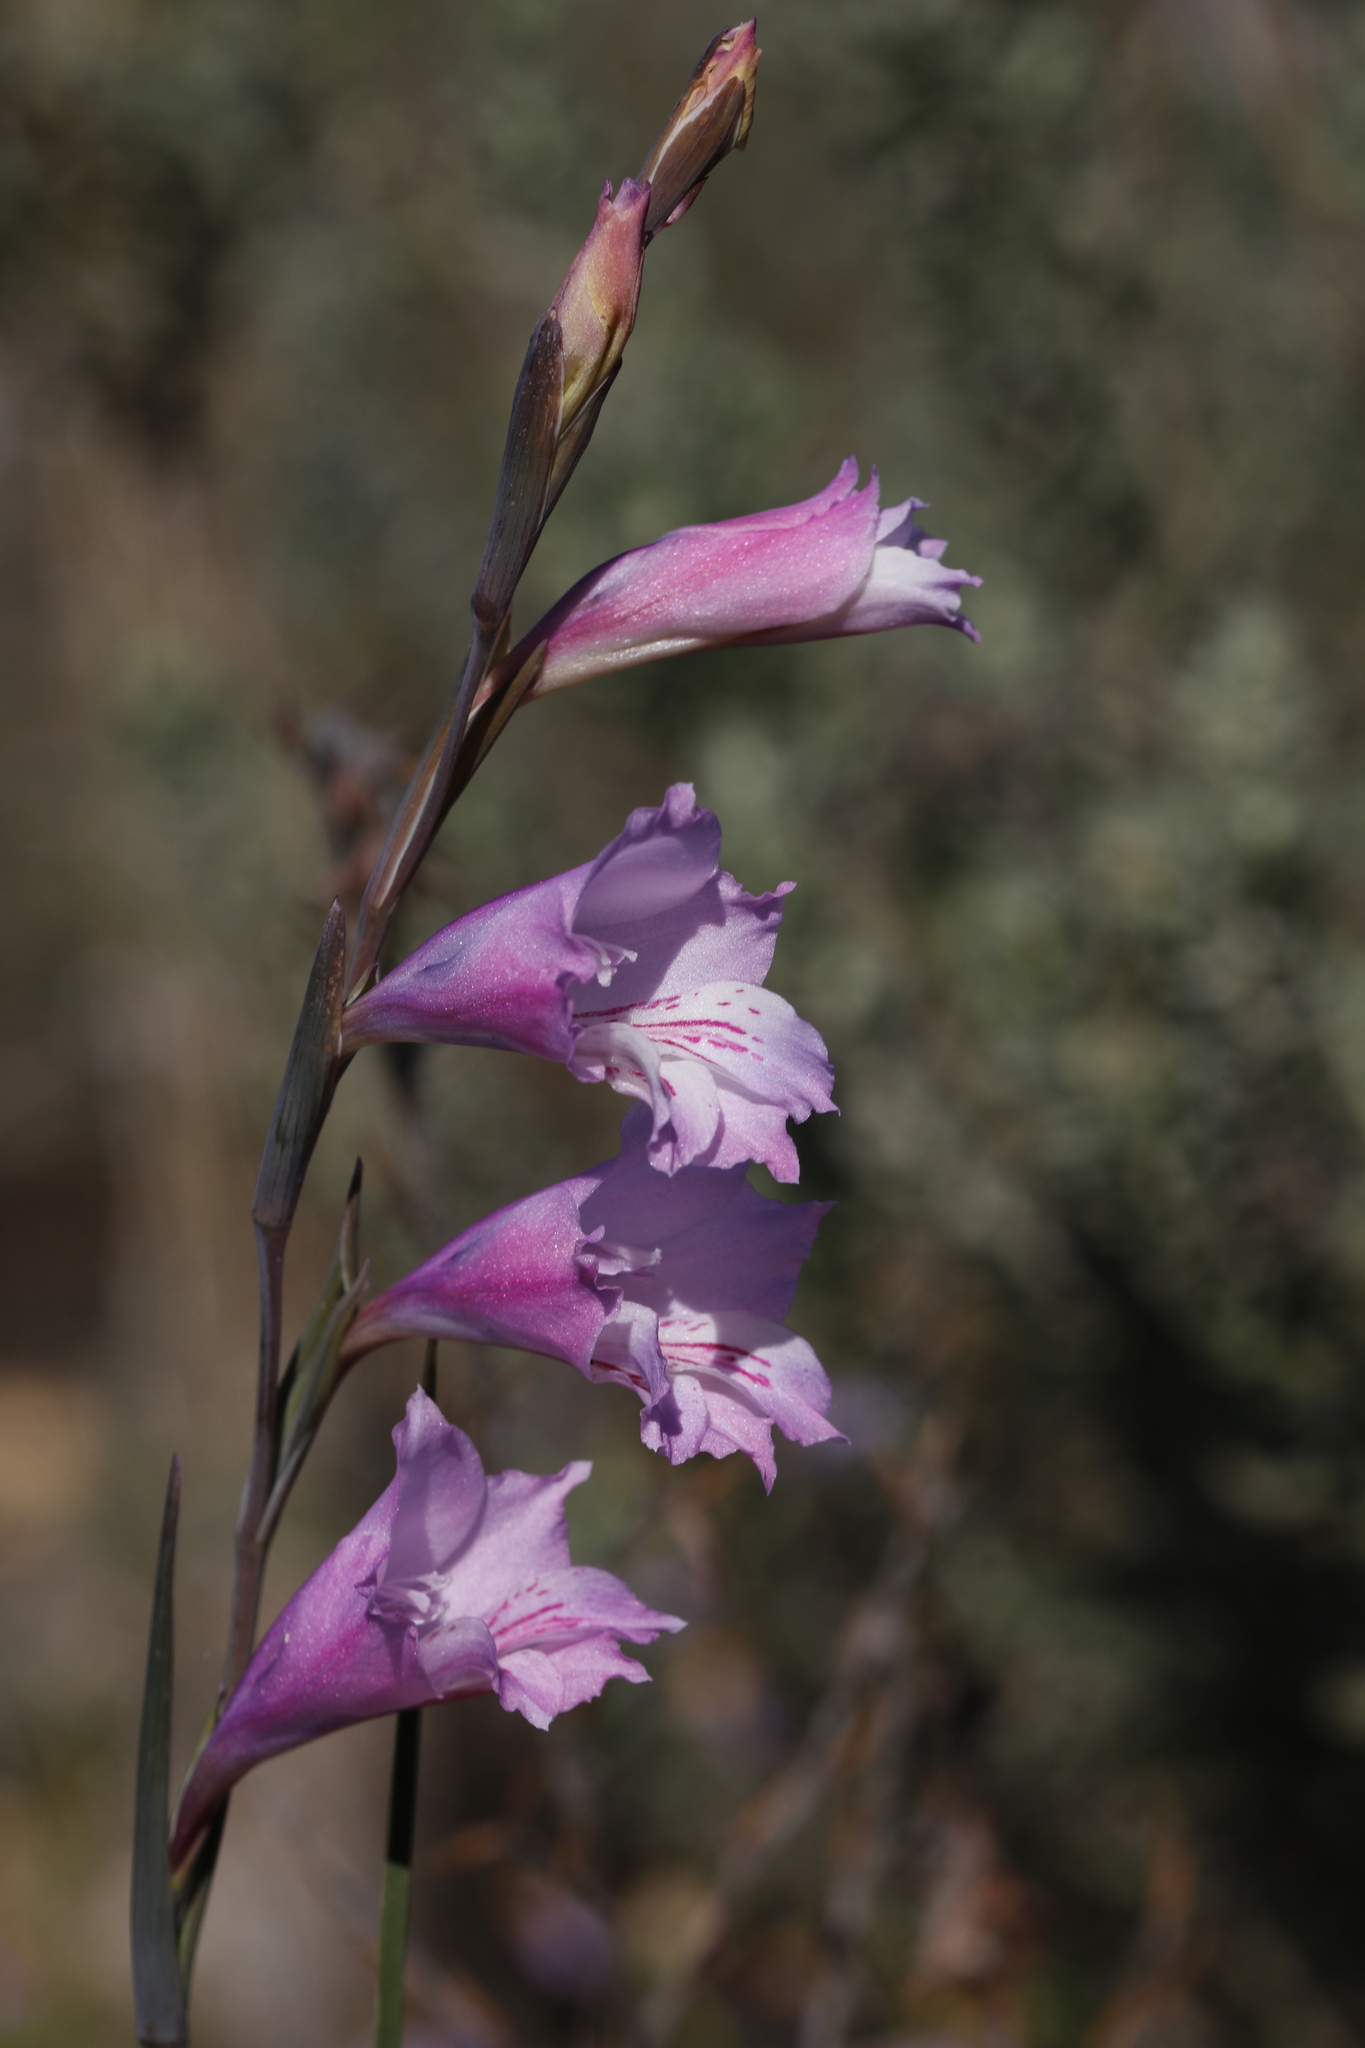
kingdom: Plantae
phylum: Tracheophyta
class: Liliopsida
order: Asparagales
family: Iridaceae
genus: Gladiolus
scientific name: Gladiolus hirsutus
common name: Small pink afrikaner
